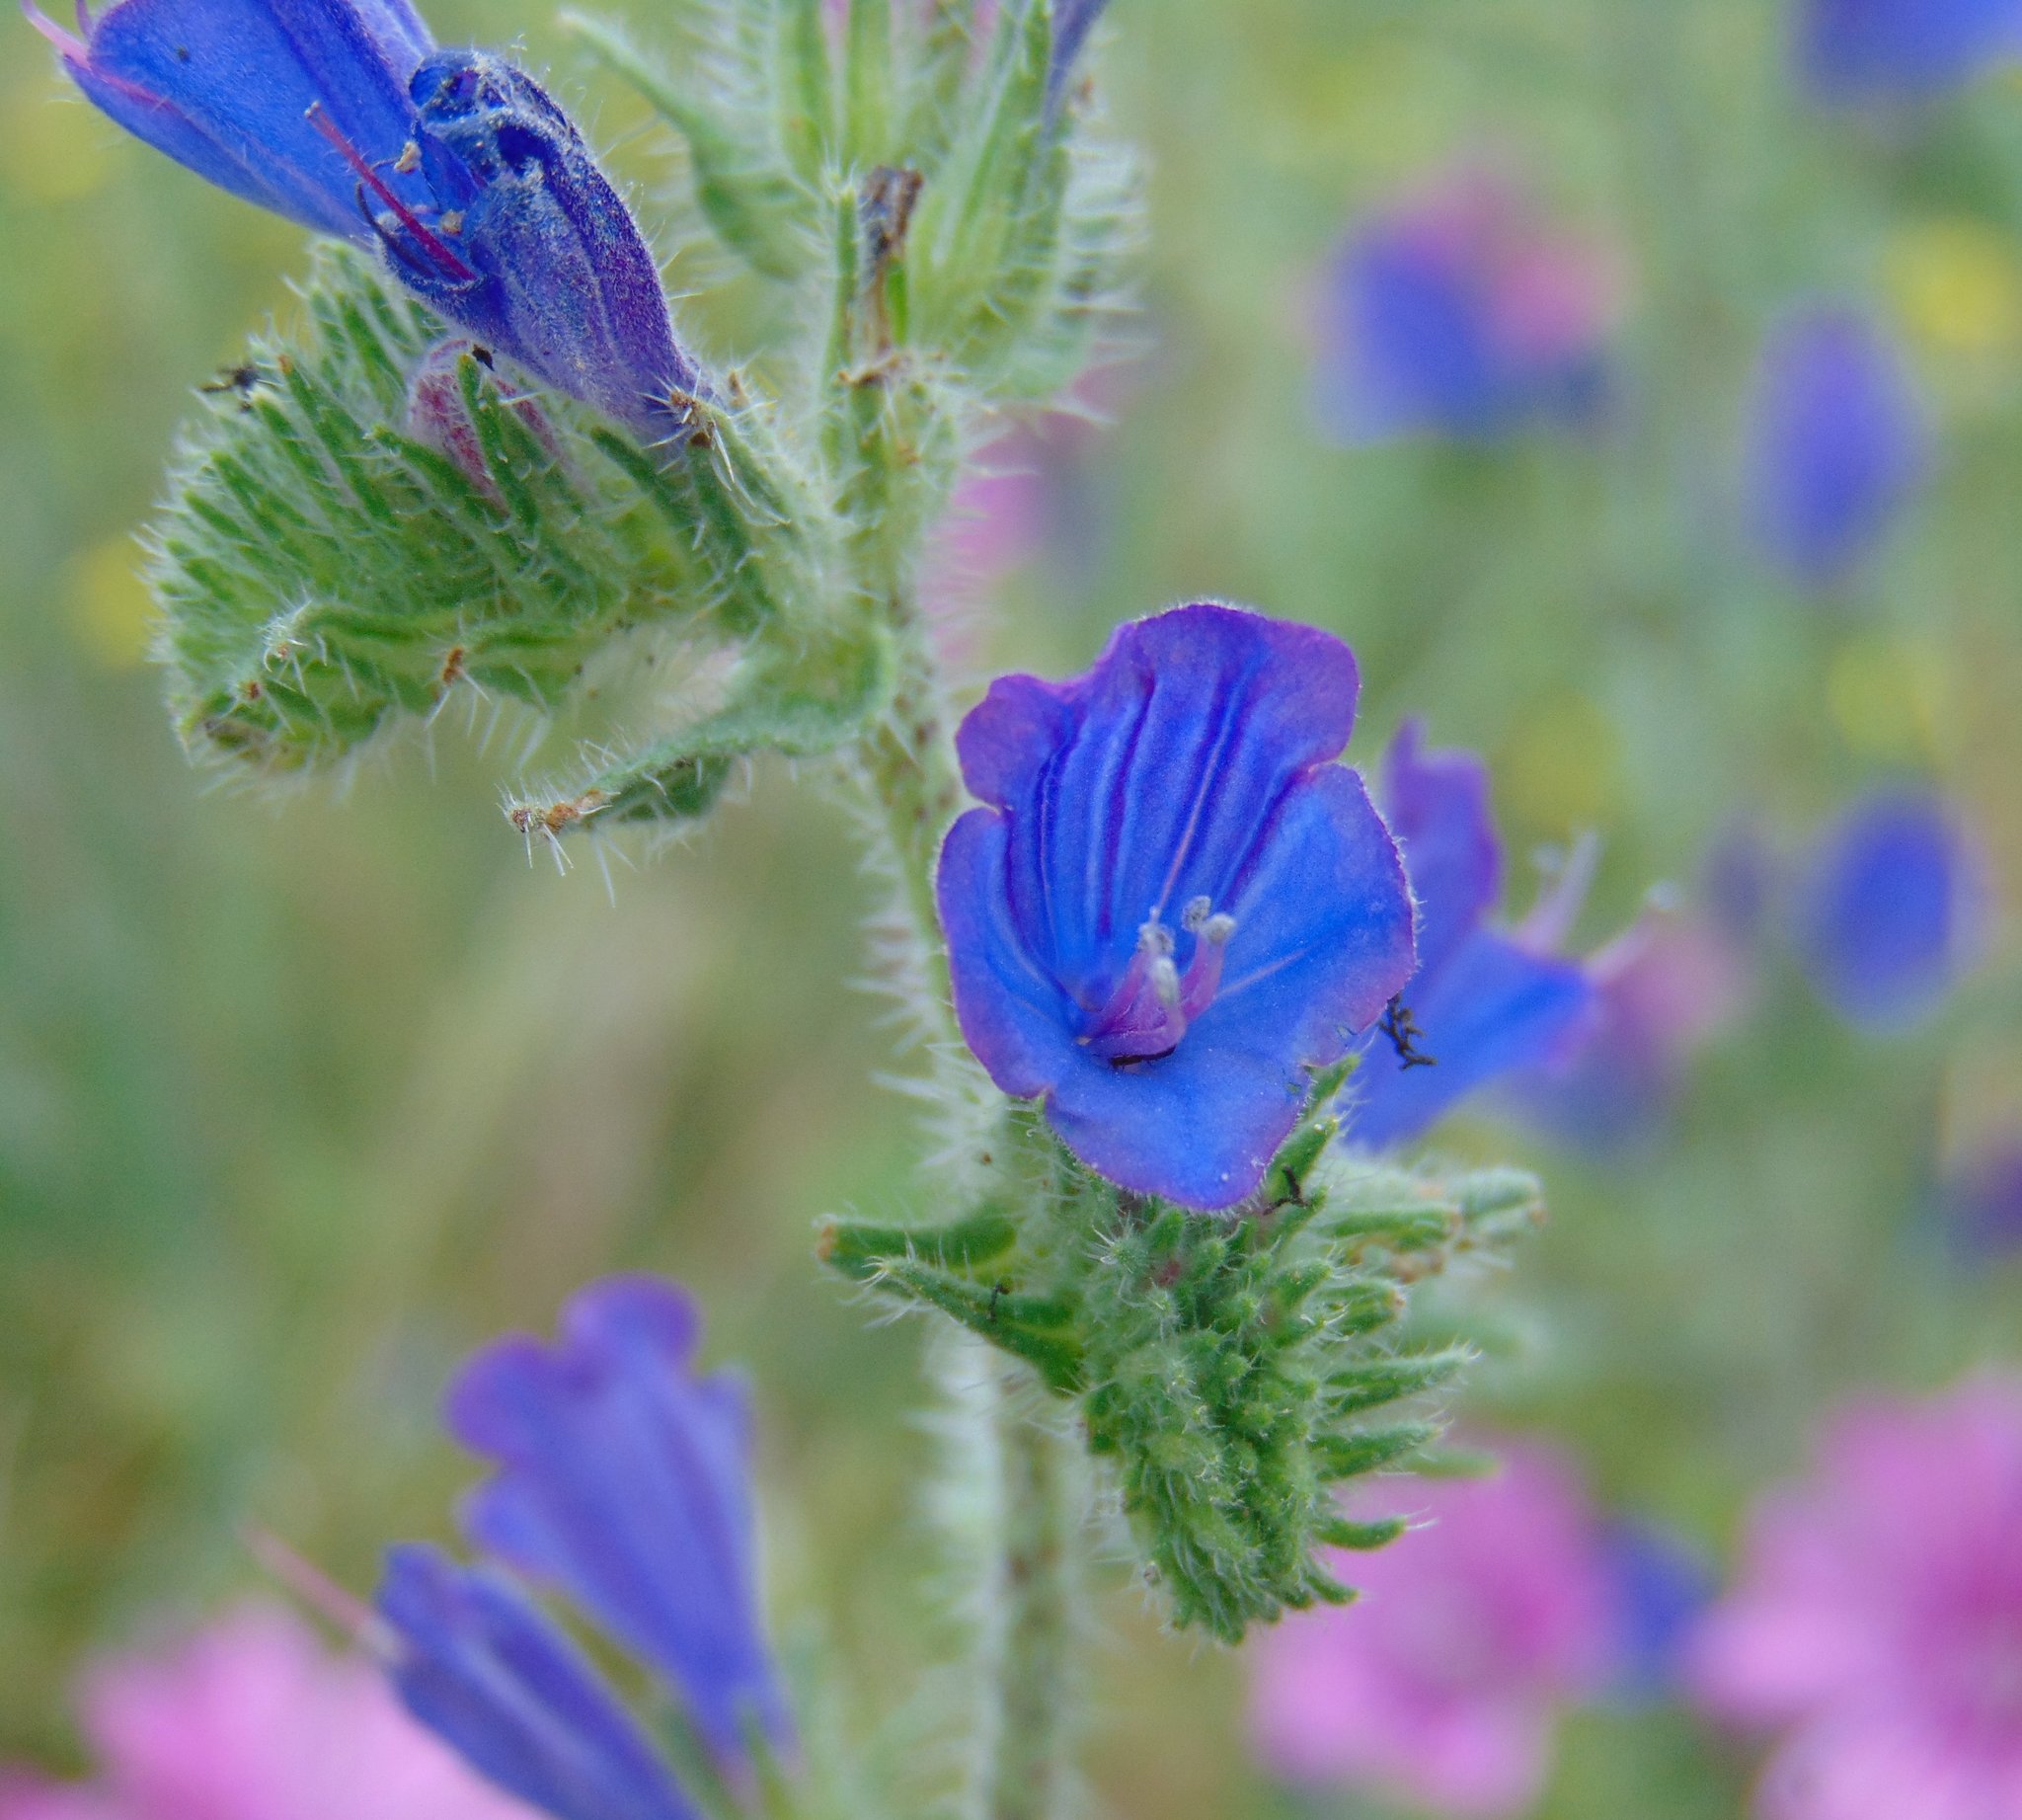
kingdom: Plantae
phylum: Tracheophyta
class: Magnoliopsida
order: Boraginales
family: Boraginaceae
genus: Echium
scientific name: Echium vulgare
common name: Common viper's bugloss
